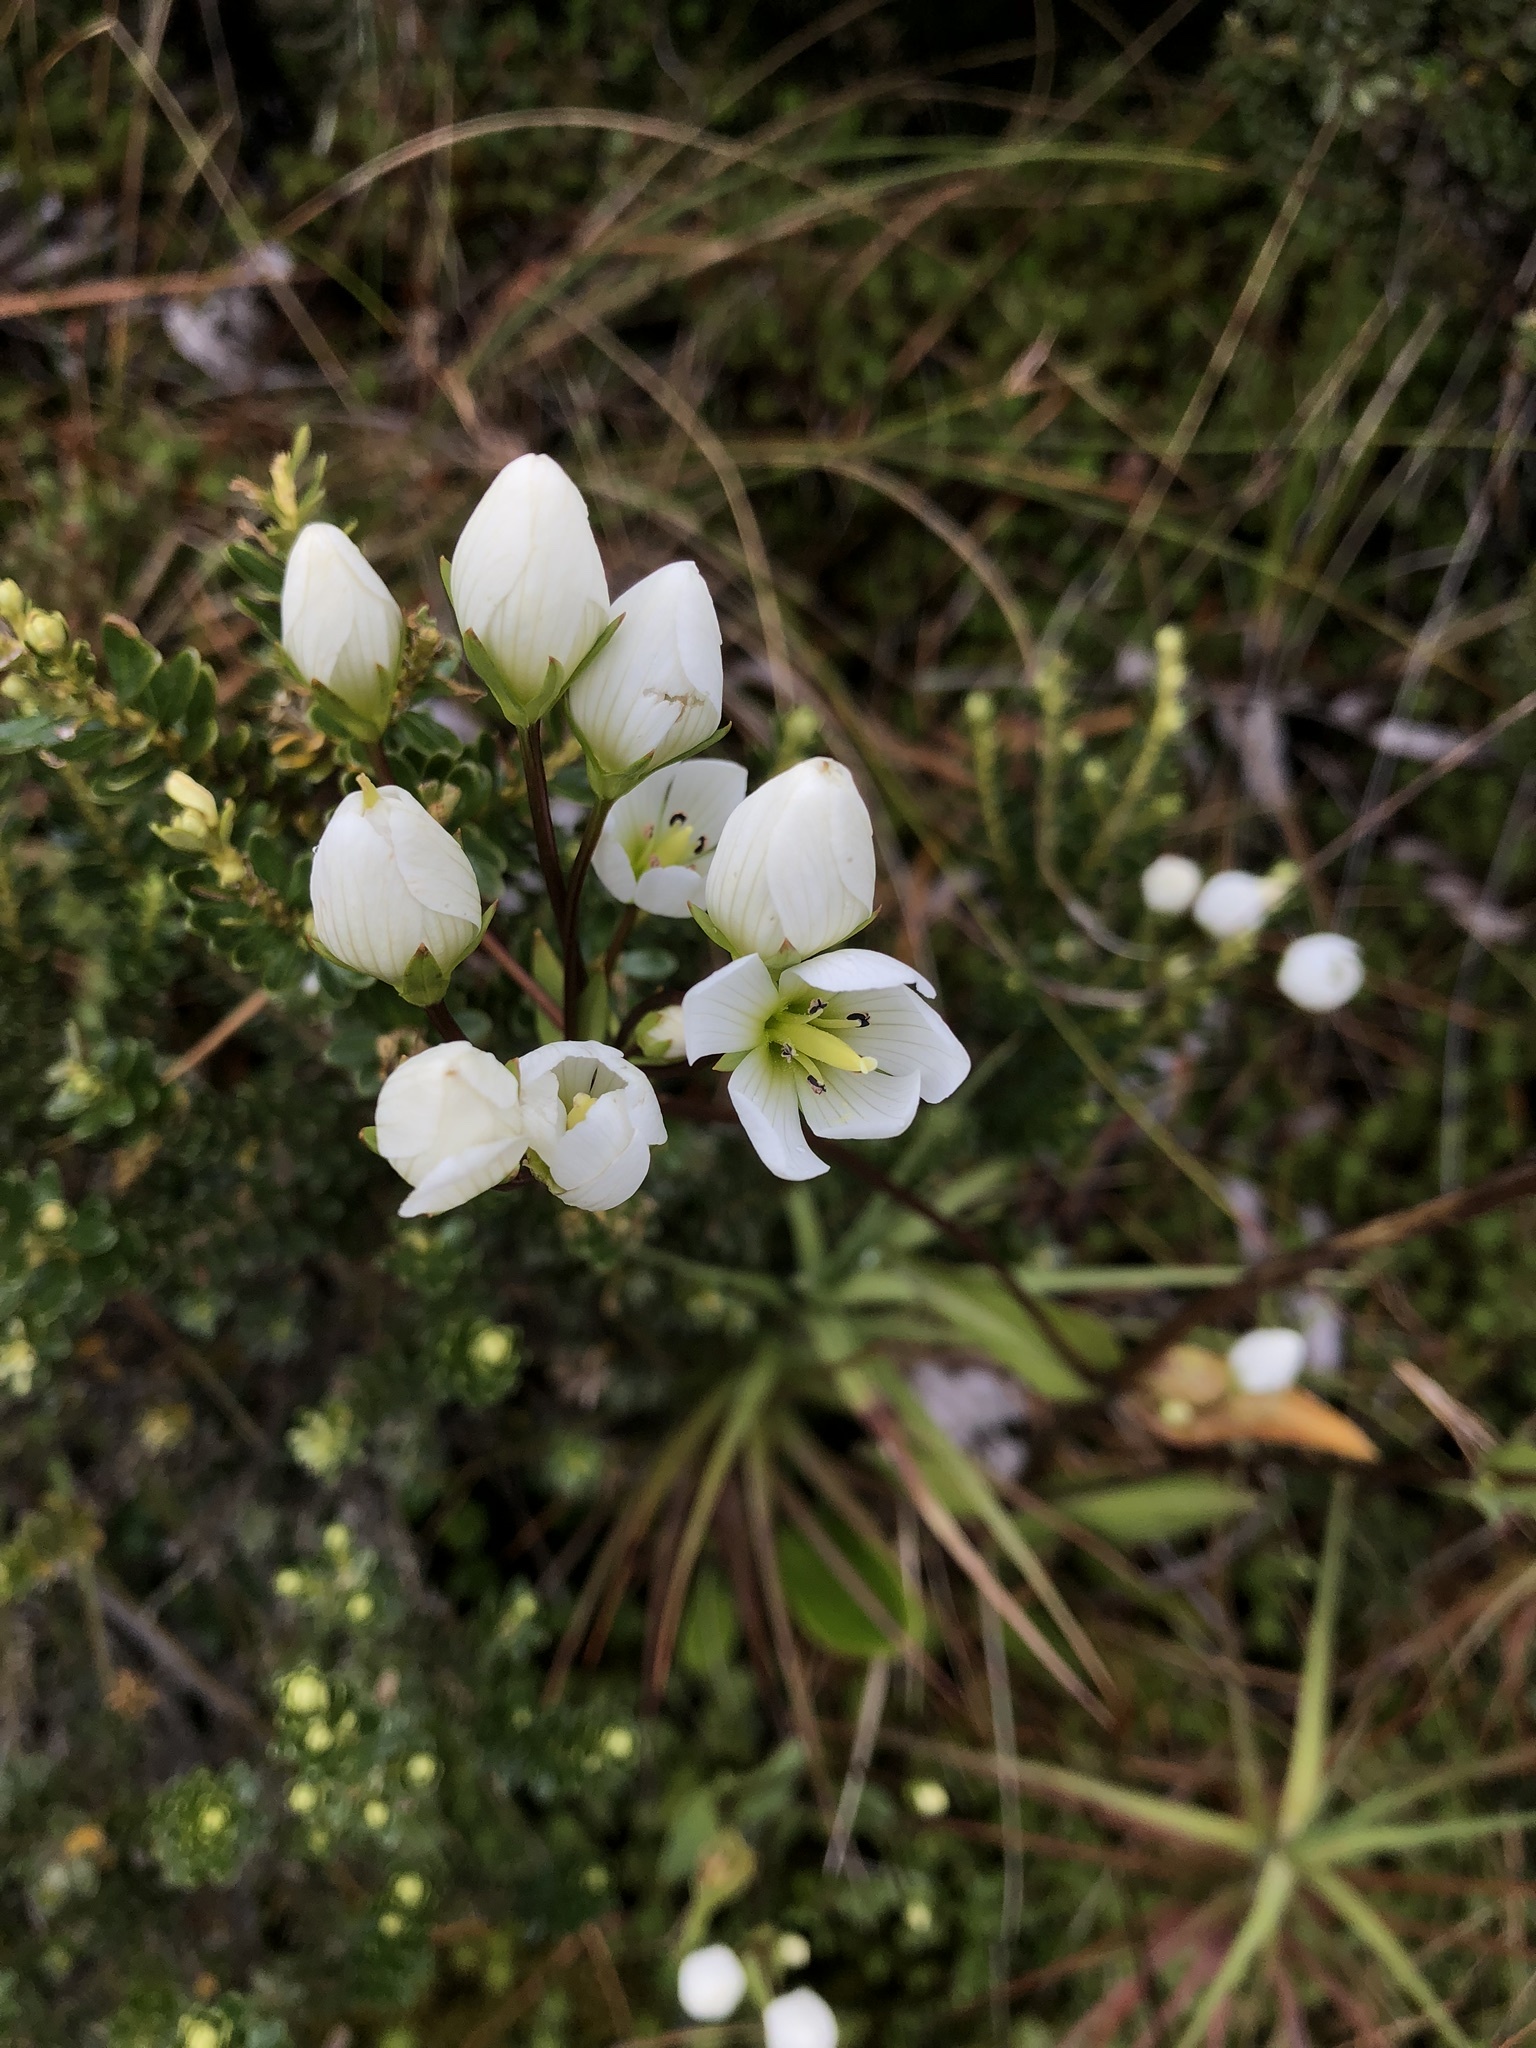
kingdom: Plantae
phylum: Tracheophyta
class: Magnoliopsida
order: Gentianales
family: Gentianaceae
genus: Gentianella
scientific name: Gentianella montana
